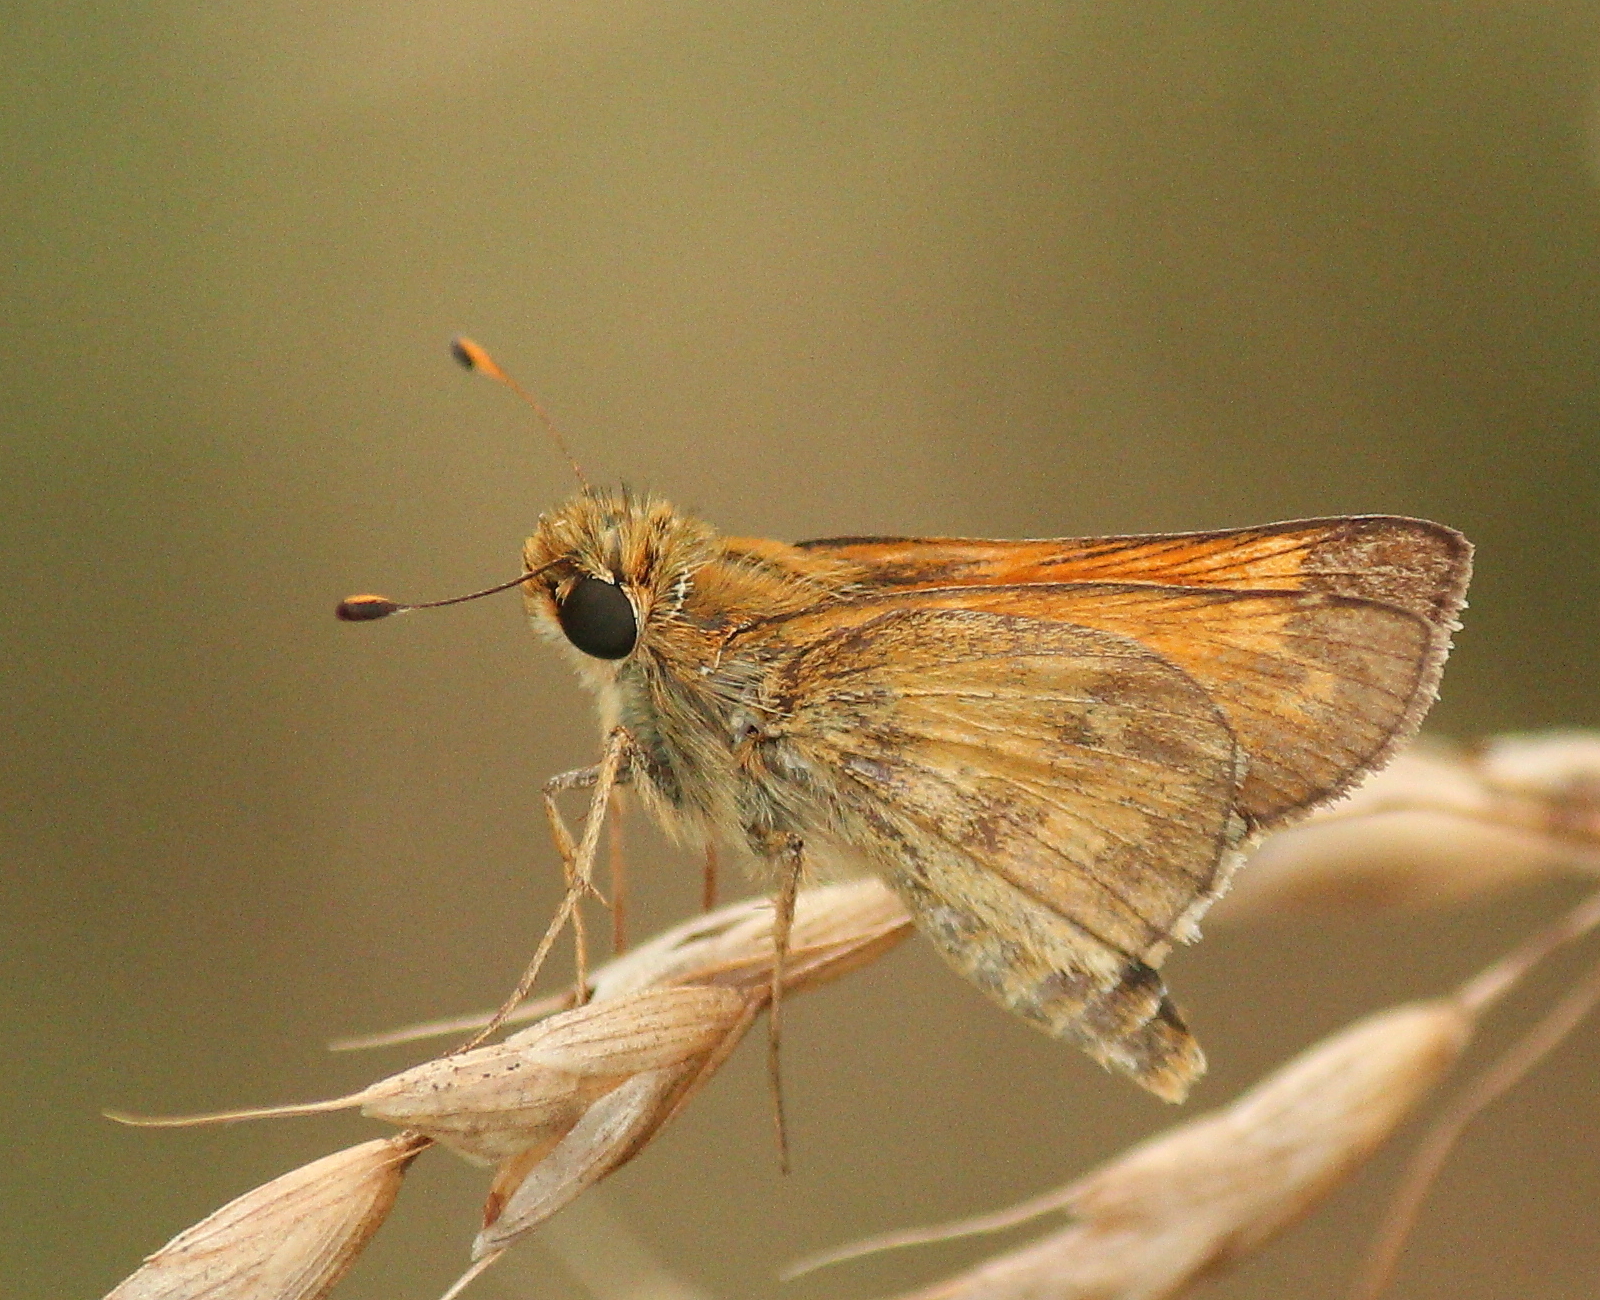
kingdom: Animalia
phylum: Arthropoda
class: Insecta
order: Lepidoptera
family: Hesperiidae
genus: Atalopedes
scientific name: Atalopedes
